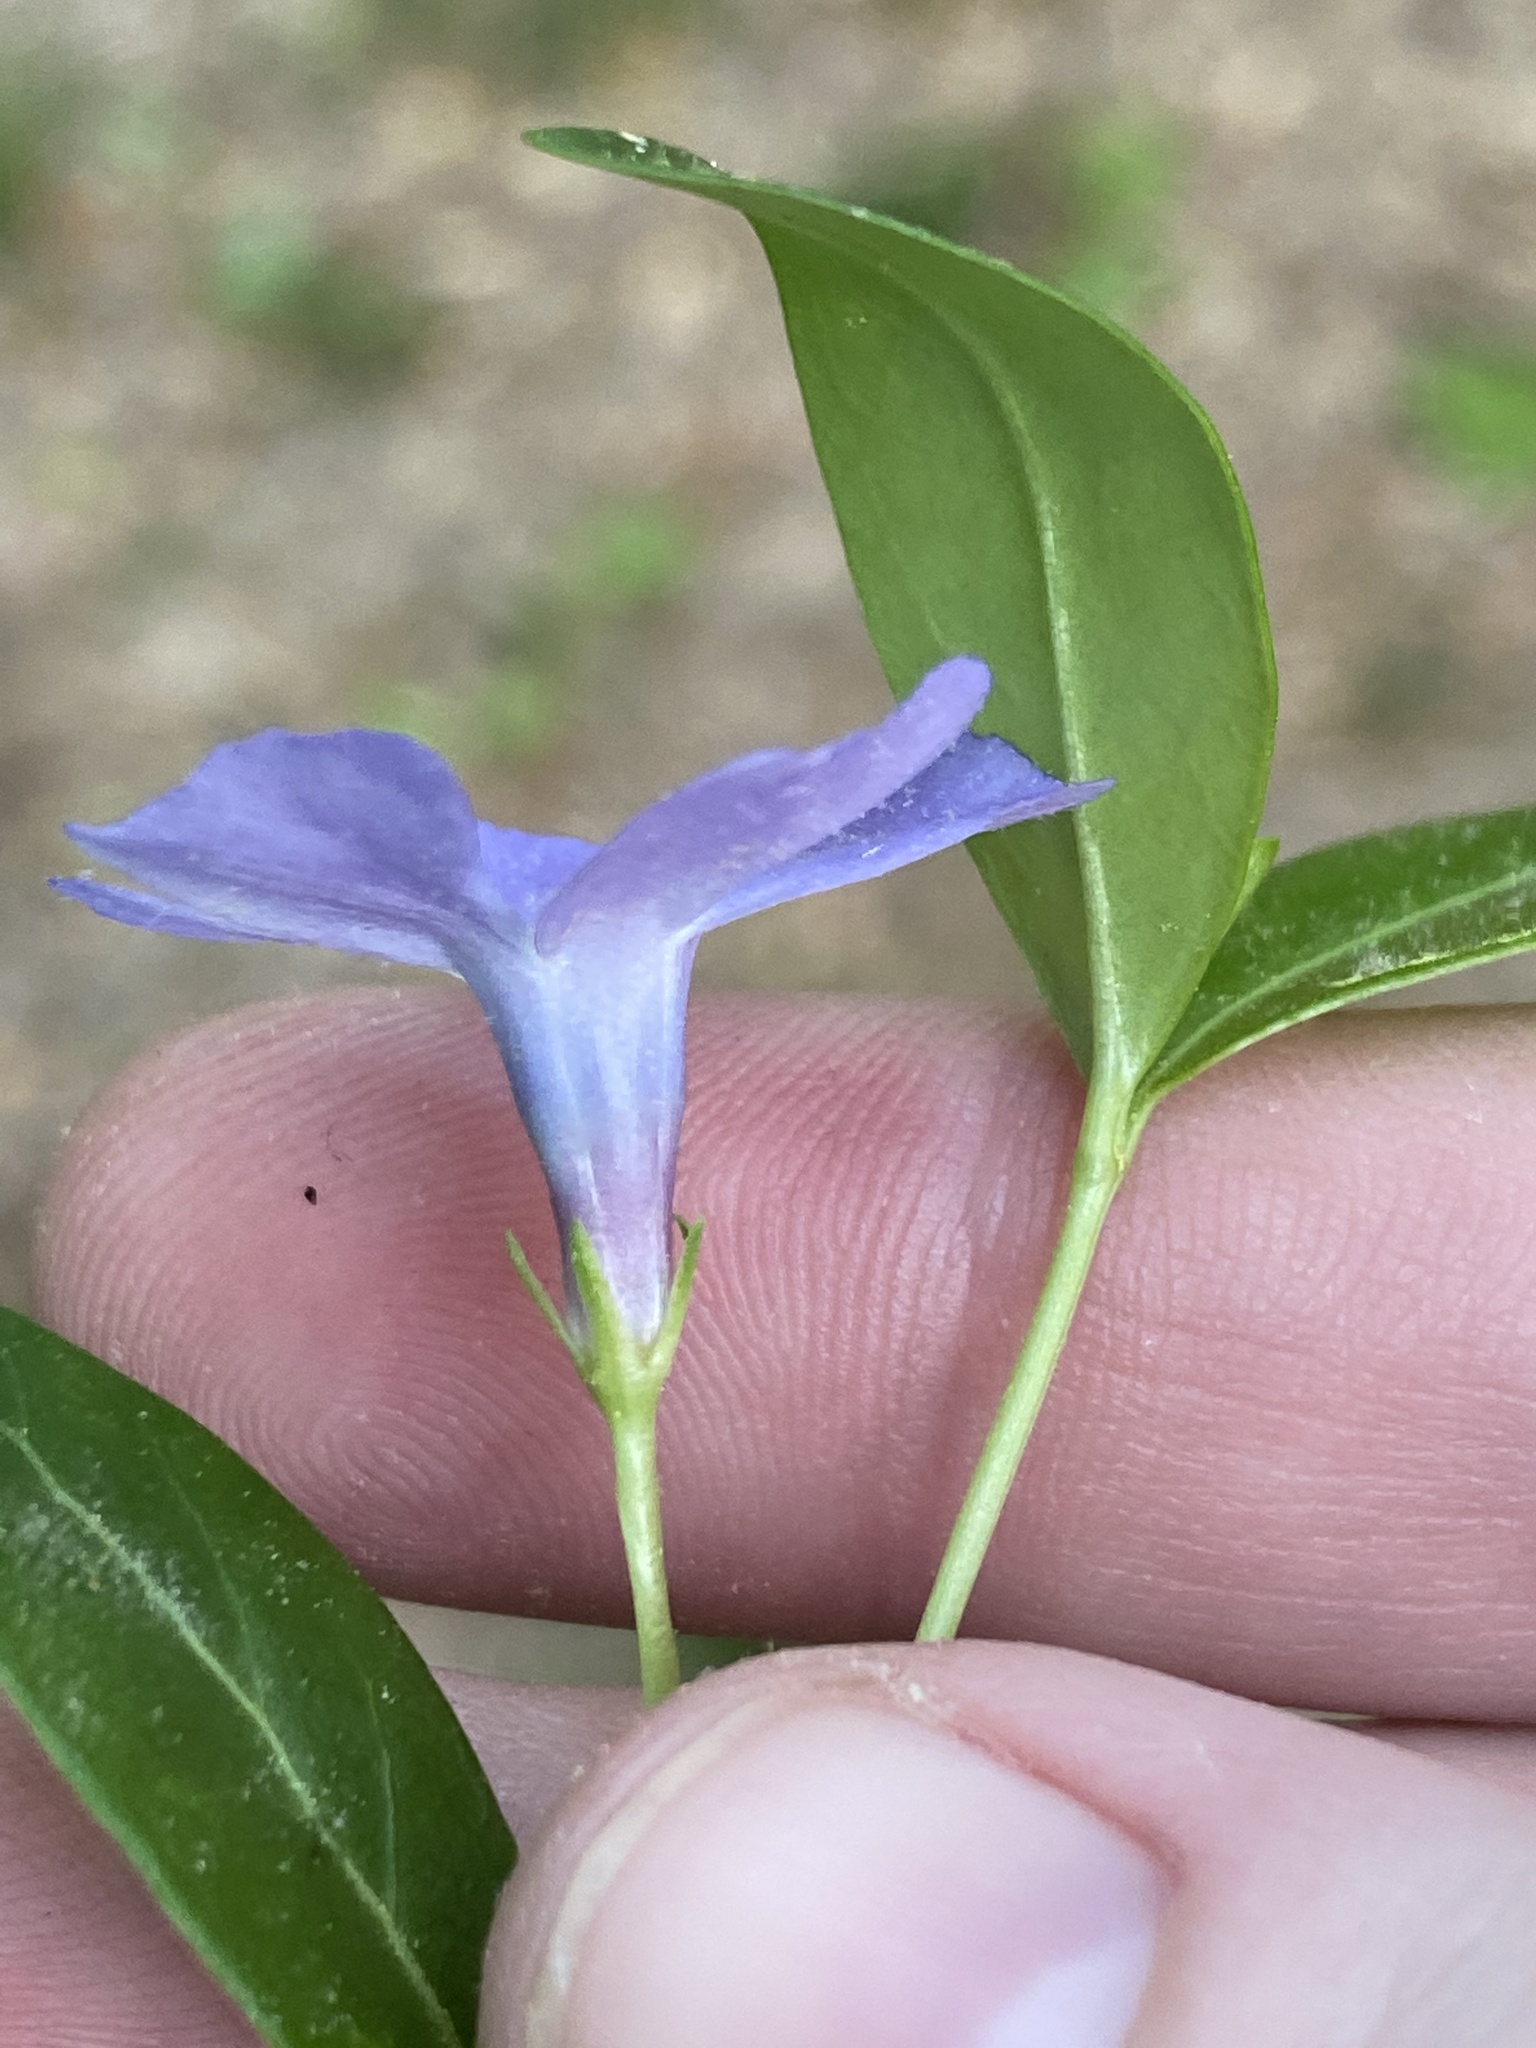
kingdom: Plantae
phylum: Tracheophyta
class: Magnoliopsida
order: Gentianales
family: Apocynaceae
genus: Vinca
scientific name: Vinca minor
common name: Lesser periwinkle
